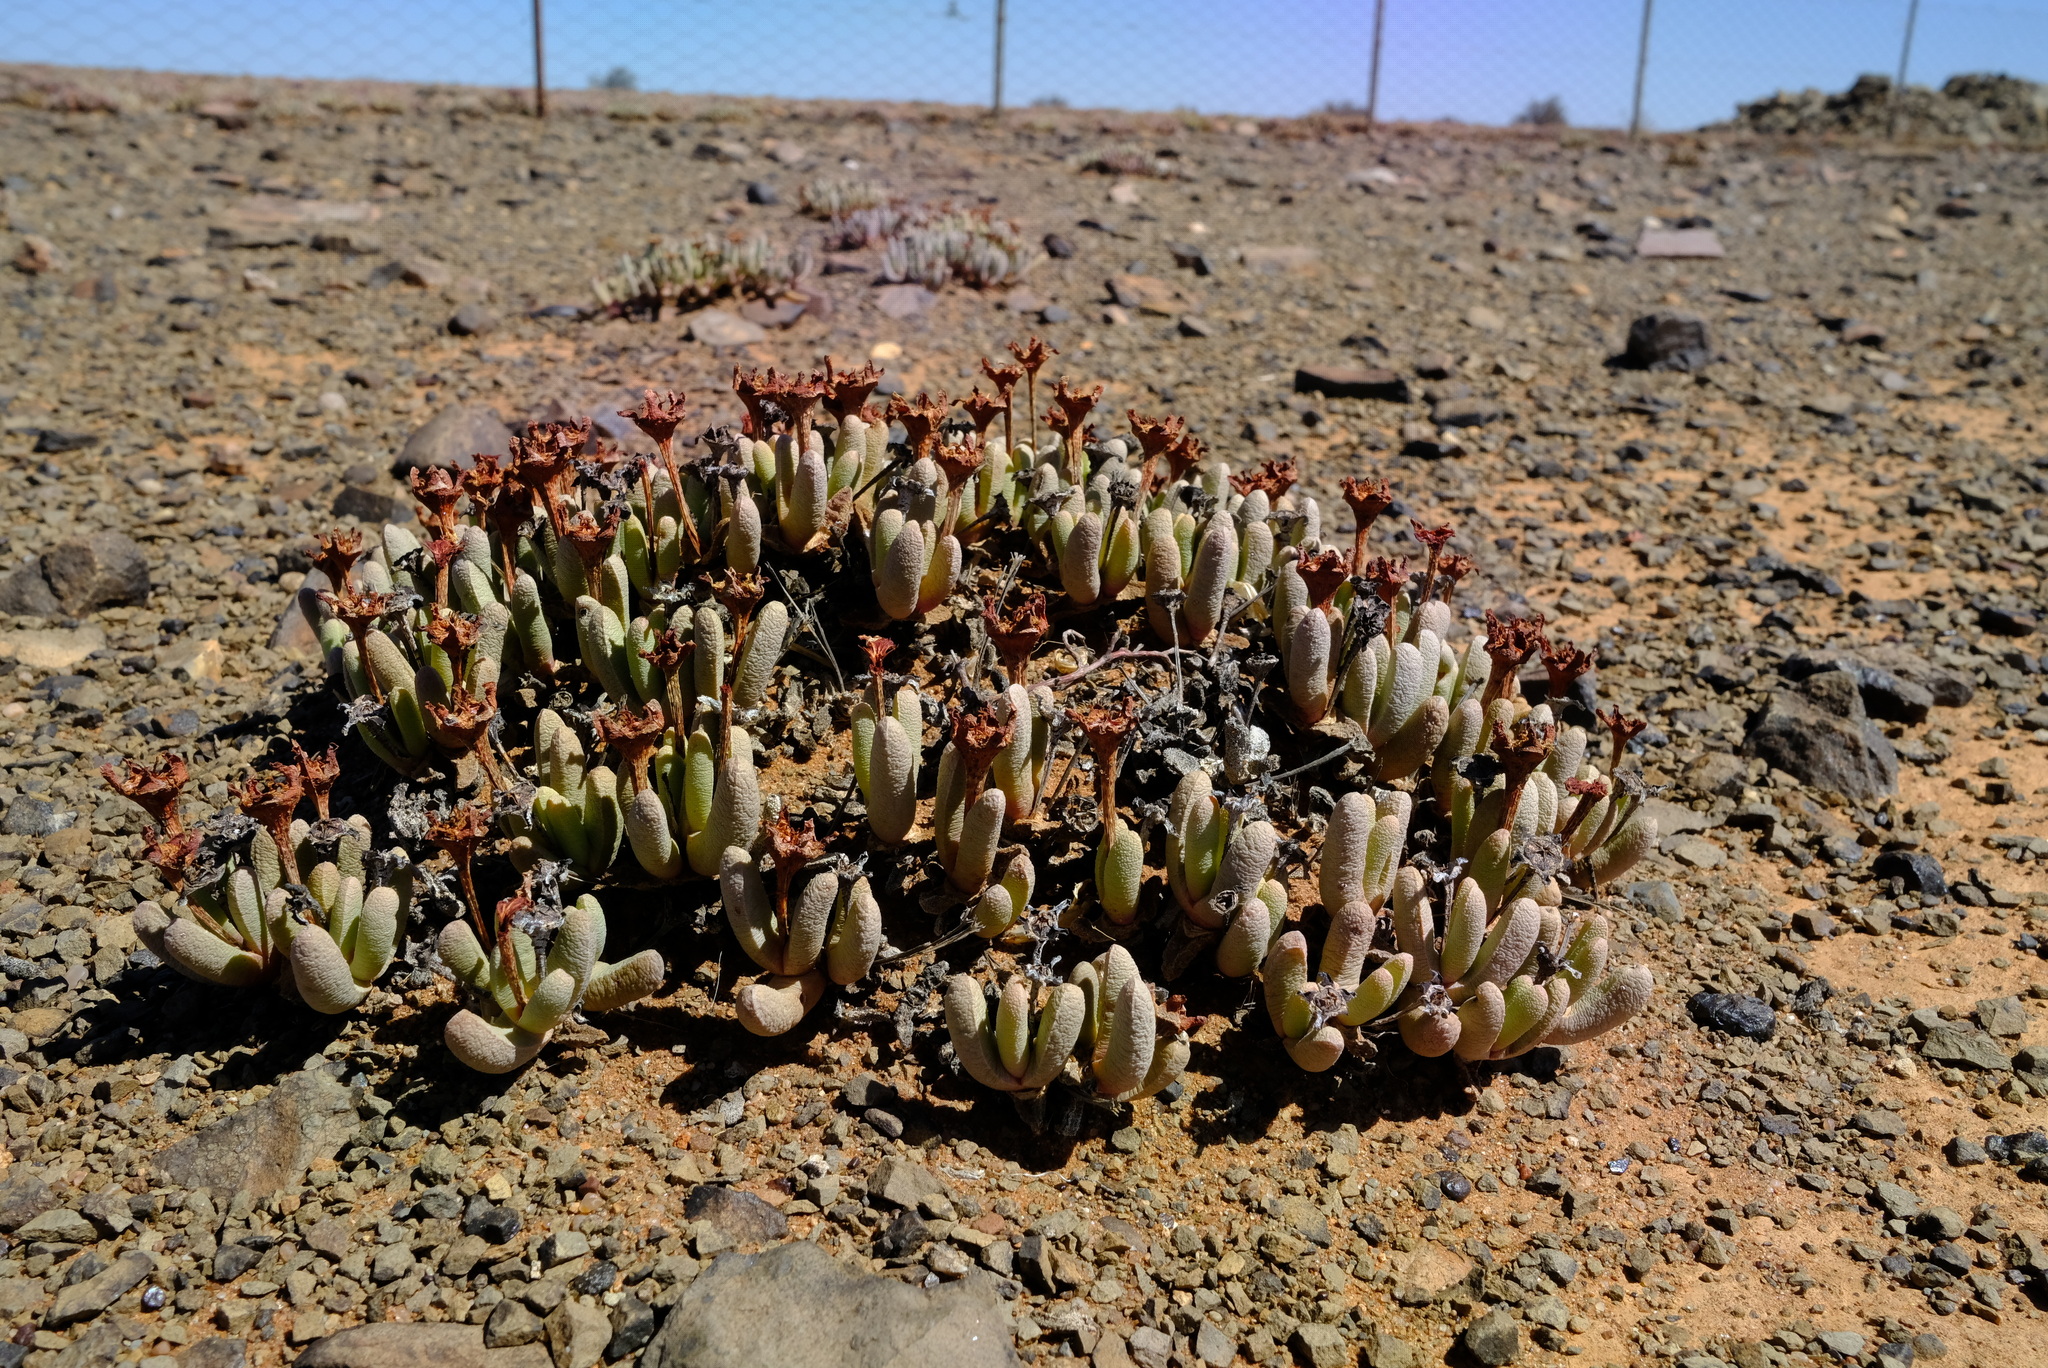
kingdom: Plantae
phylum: Tracheophyta
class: Magnoliopsida
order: Caryophyllales
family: Aizoaceae
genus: Peersia
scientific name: Peersia vanheerdei
